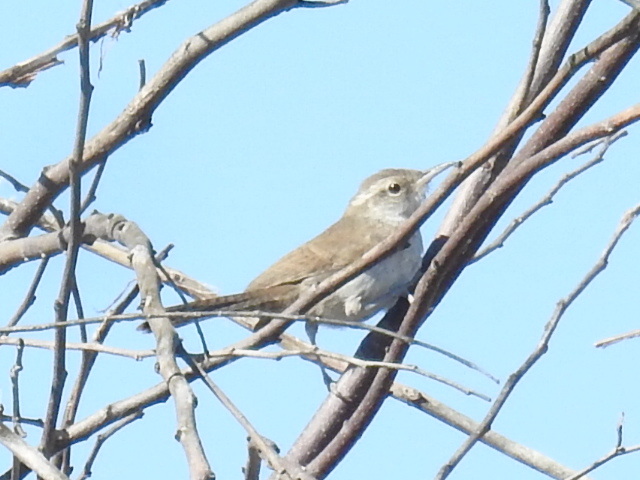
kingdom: Animalia
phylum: Chordata
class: Aves
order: Passeriformes
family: Troglodytidae
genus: Thryomanes
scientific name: Thryomanes bewickii
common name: Bewick's wren
